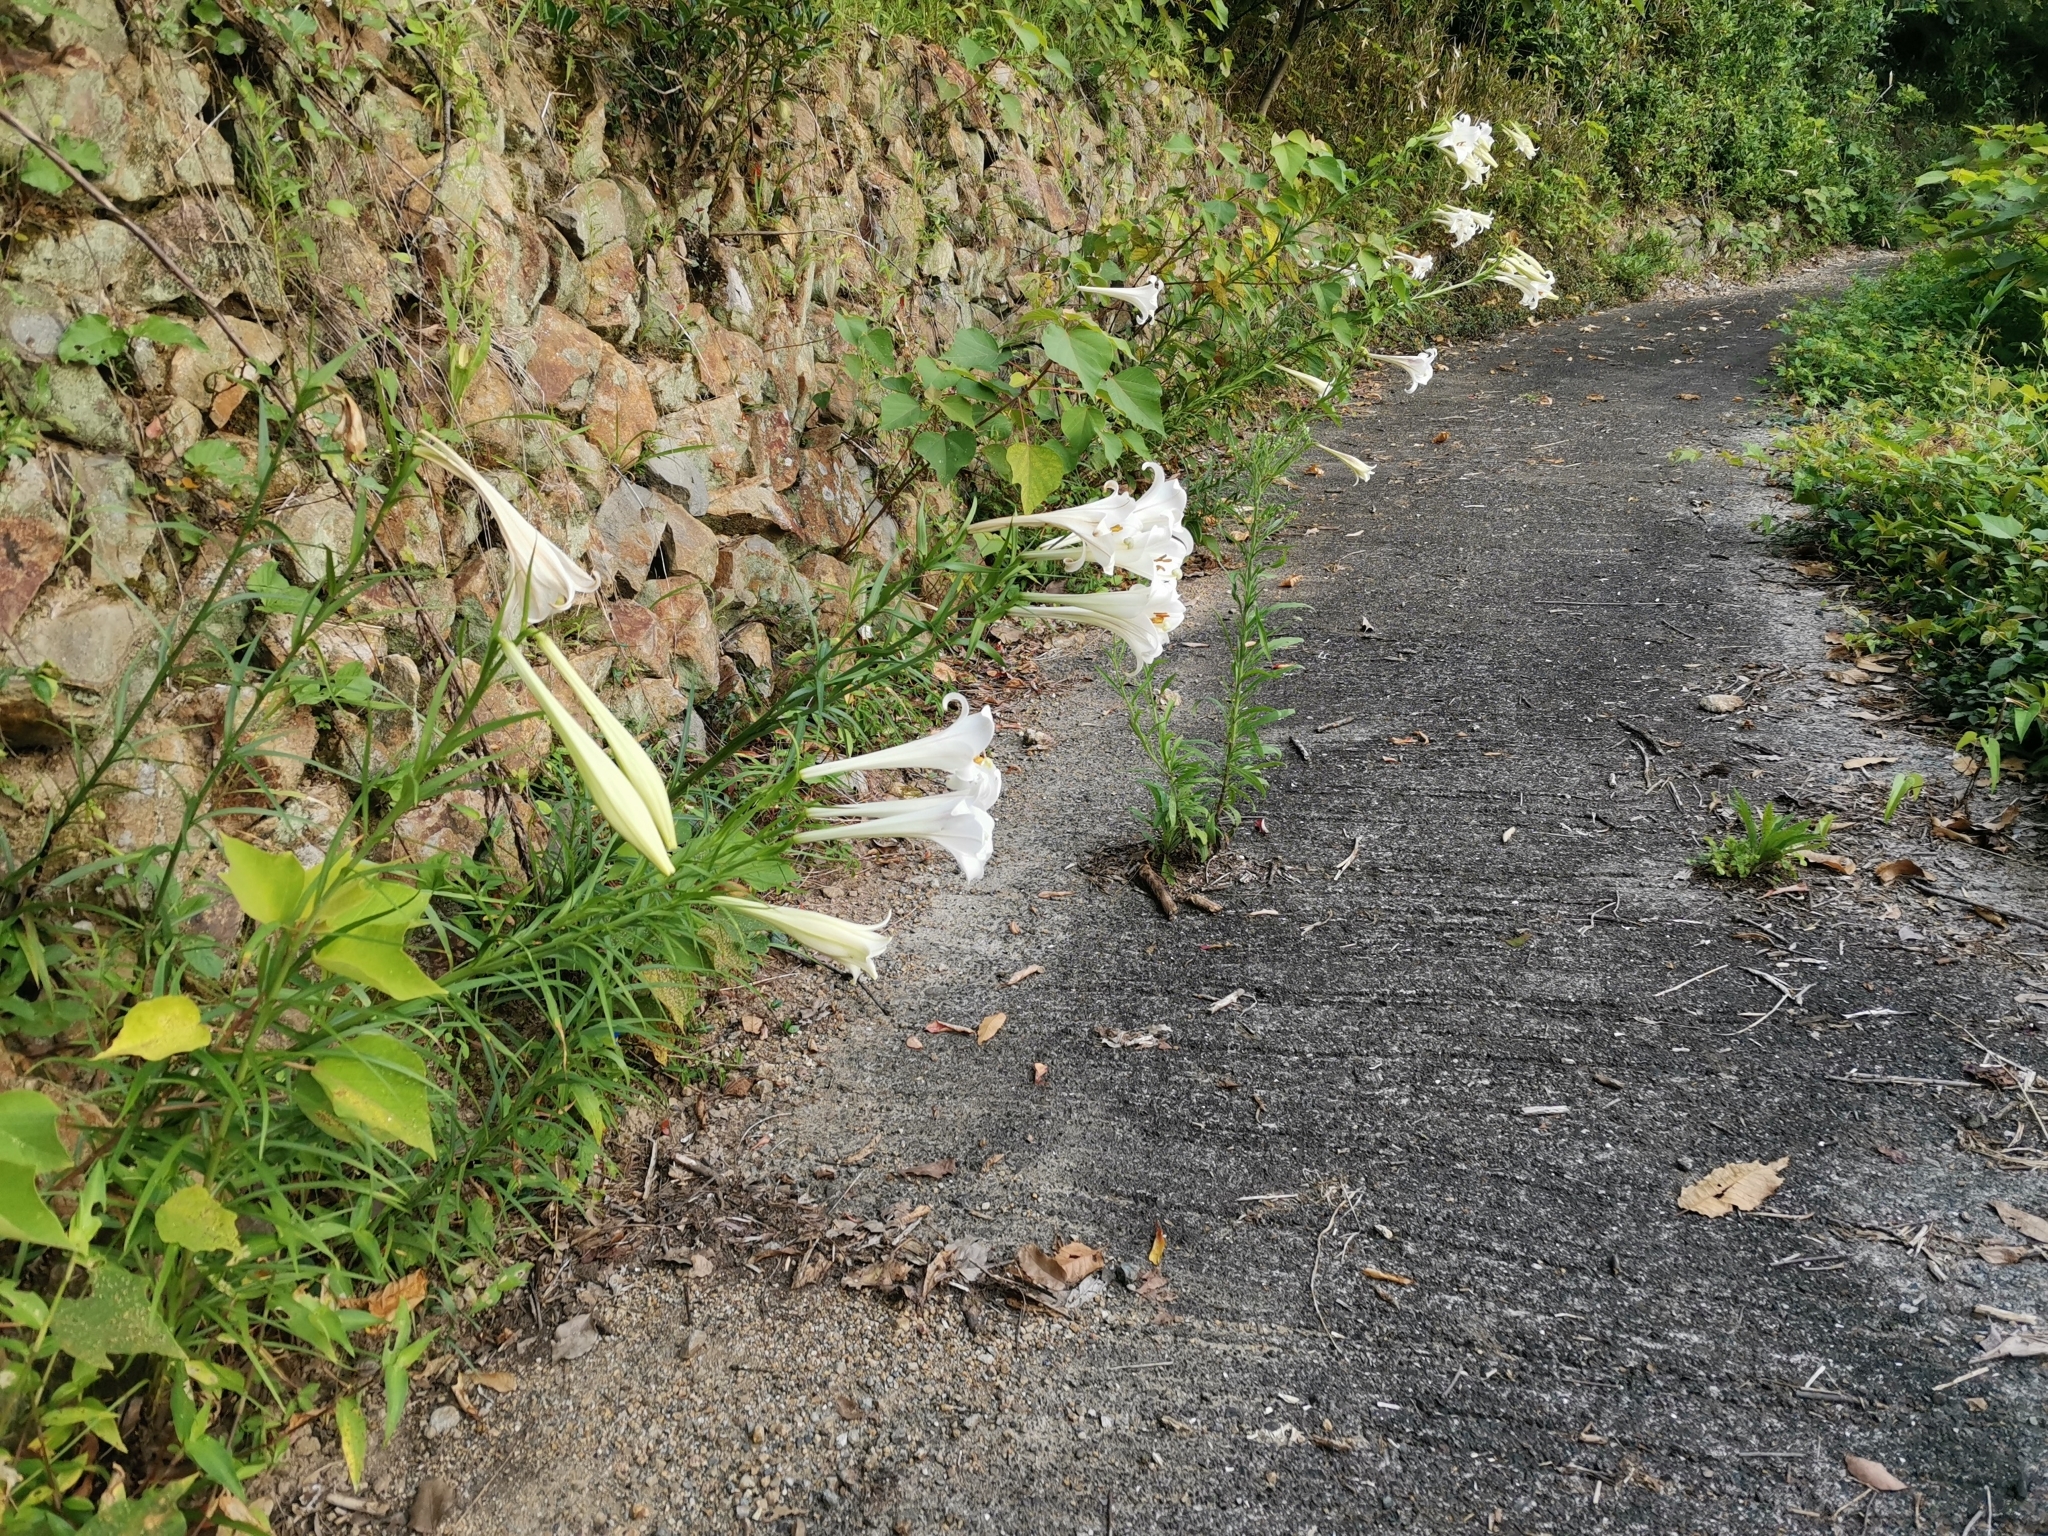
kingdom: Plantae
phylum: Tracheophyta
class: Liliopsida
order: Liliales
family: Liliaceae
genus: Lilium
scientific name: Lilium formosanum
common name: Formosa lily
